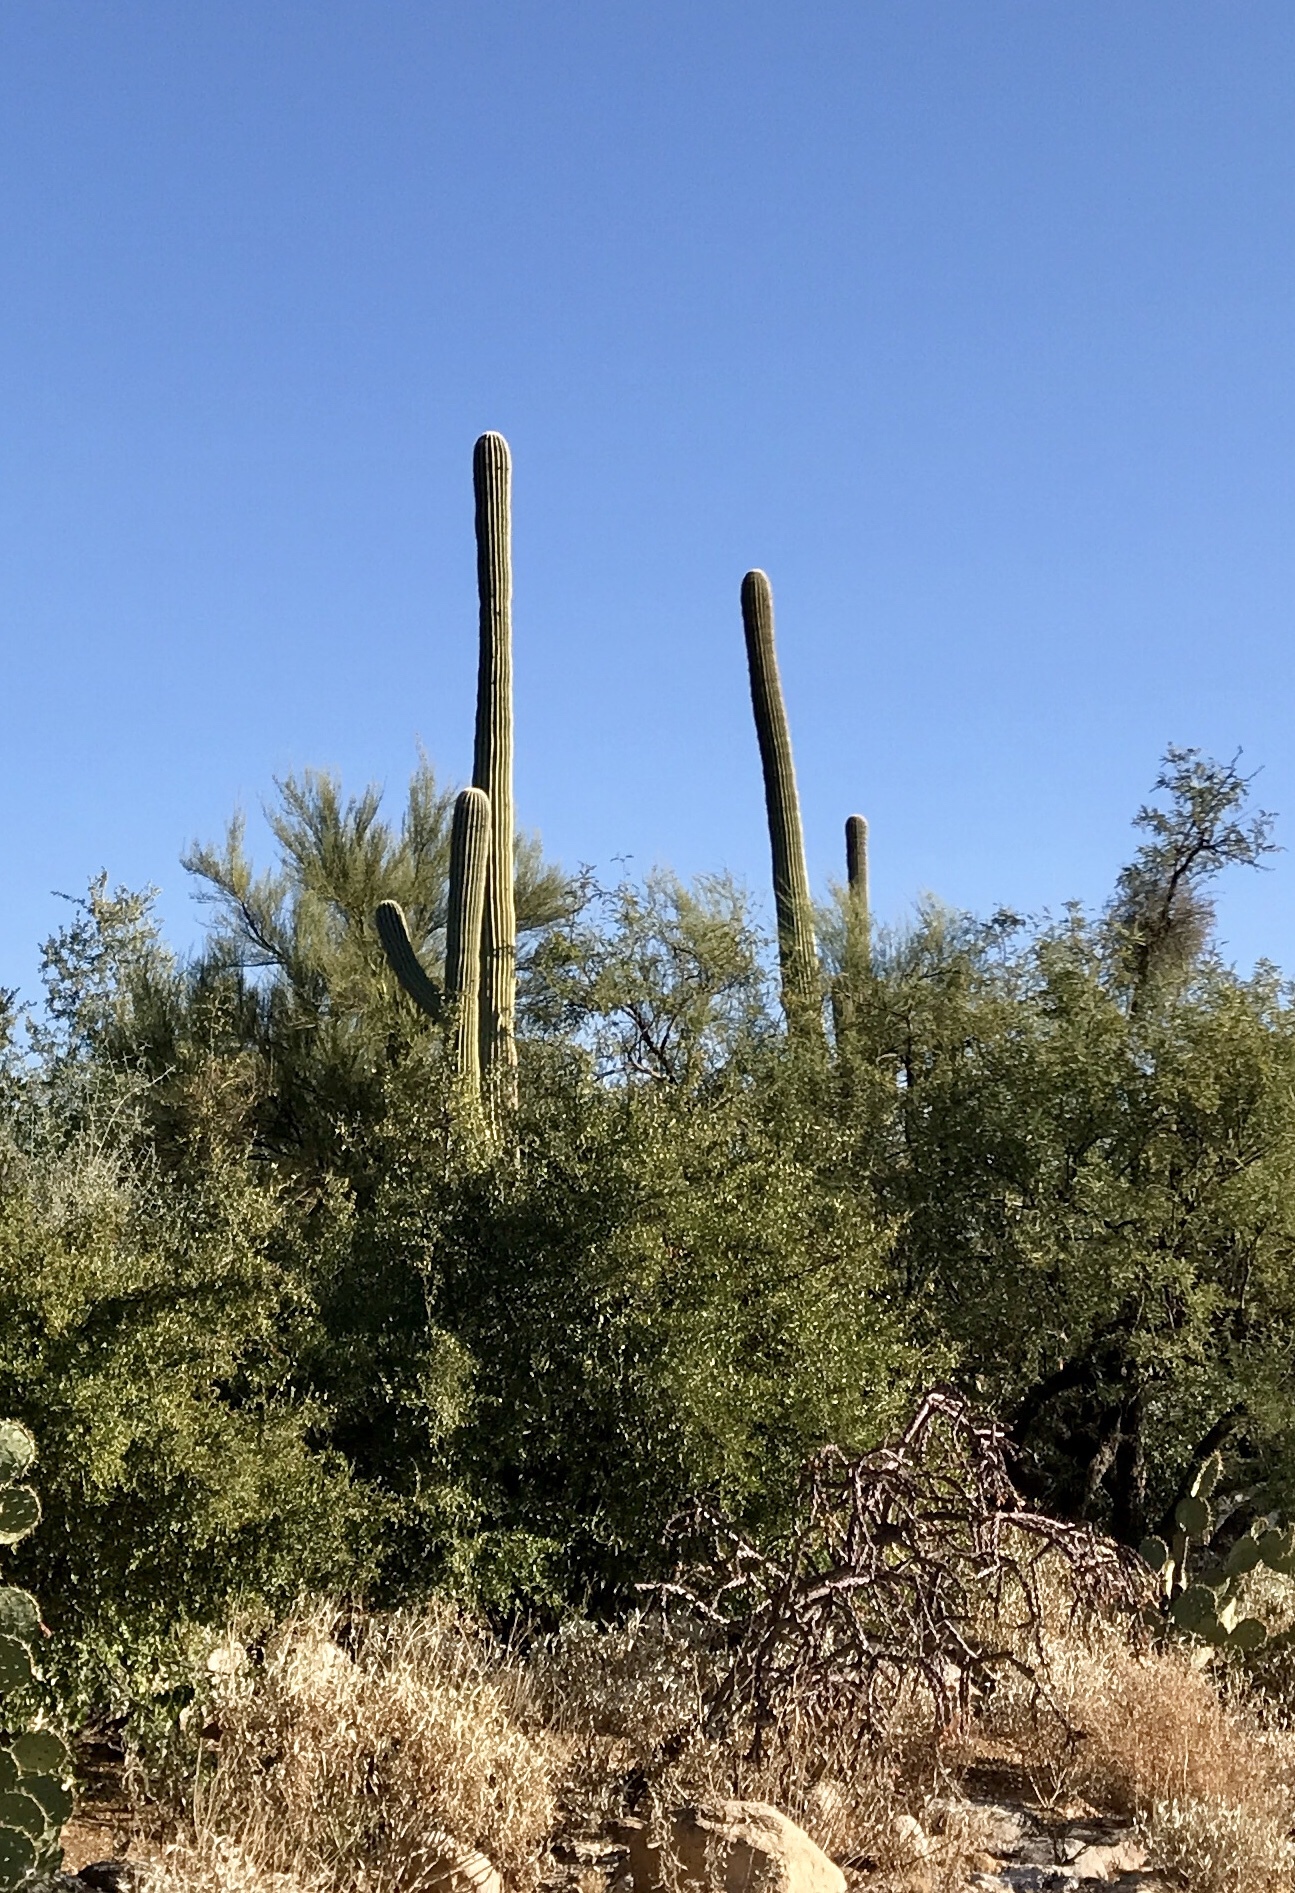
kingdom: Plantae
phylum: Tracheophyta
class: Magnoliopsida
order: Caryophyllales
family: Cactaceae
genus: Carnegiea
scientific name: Carnegiea gigantea
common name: Saguaro
